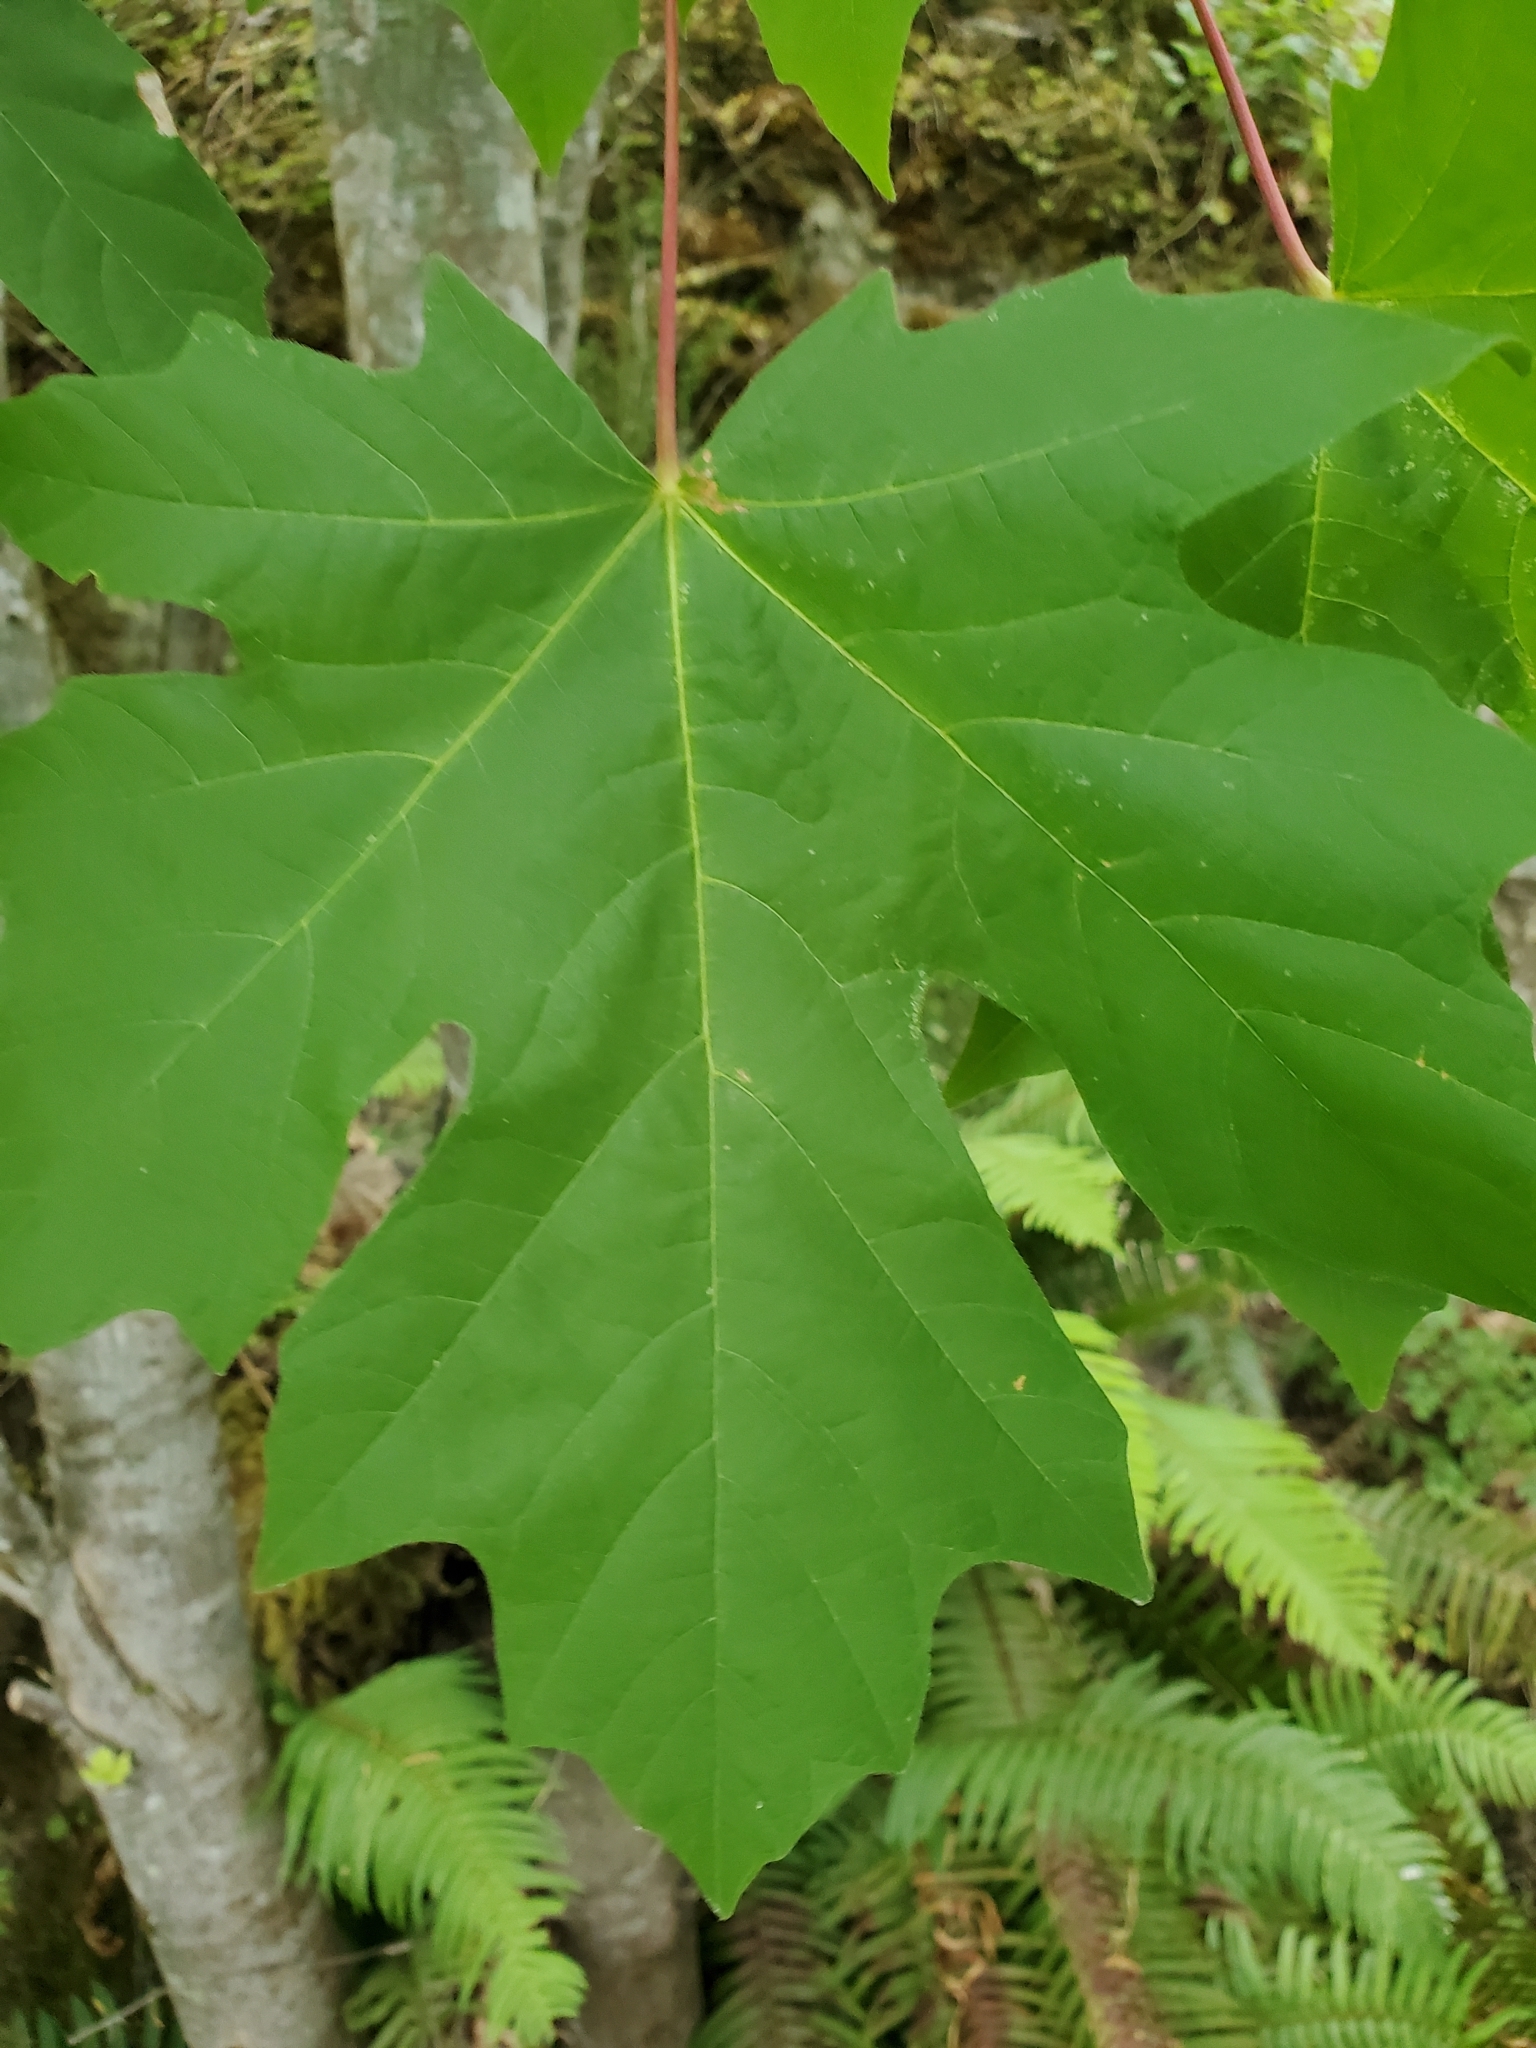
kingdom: Plantae
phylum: Tracheophyta
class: Magnoliopsida
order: Sapindales
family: Sapindaceae
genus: Acer
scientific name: Acer macrophyllum
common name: Oregon maple
